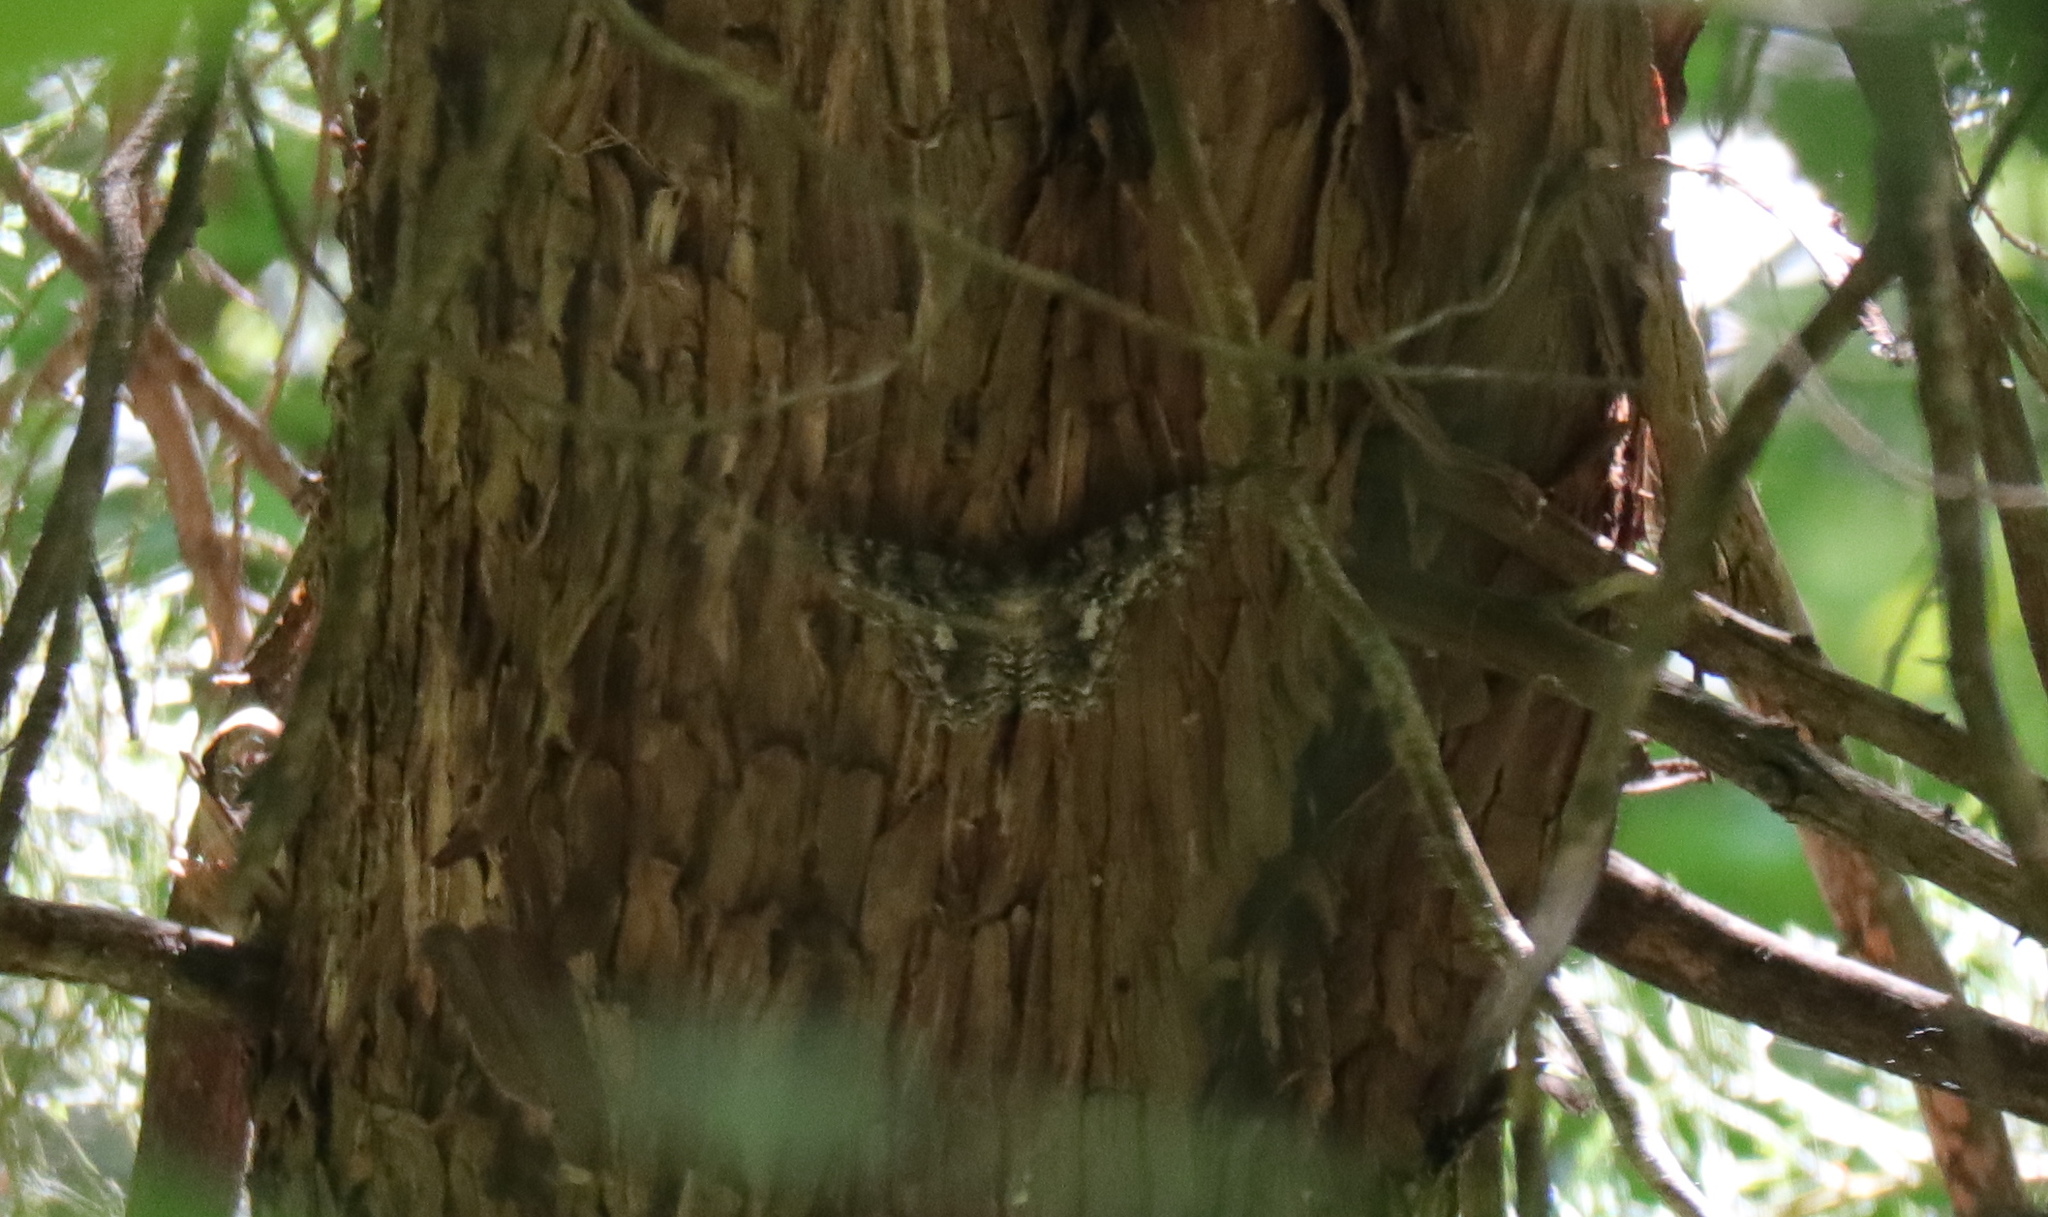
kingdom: Animalia
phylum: Arthropoda
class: Insecta
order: Lepidoptera
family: Geometridae
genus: Epimecis
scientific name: Epimecis hortaria
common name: Tulip-tree beauty
